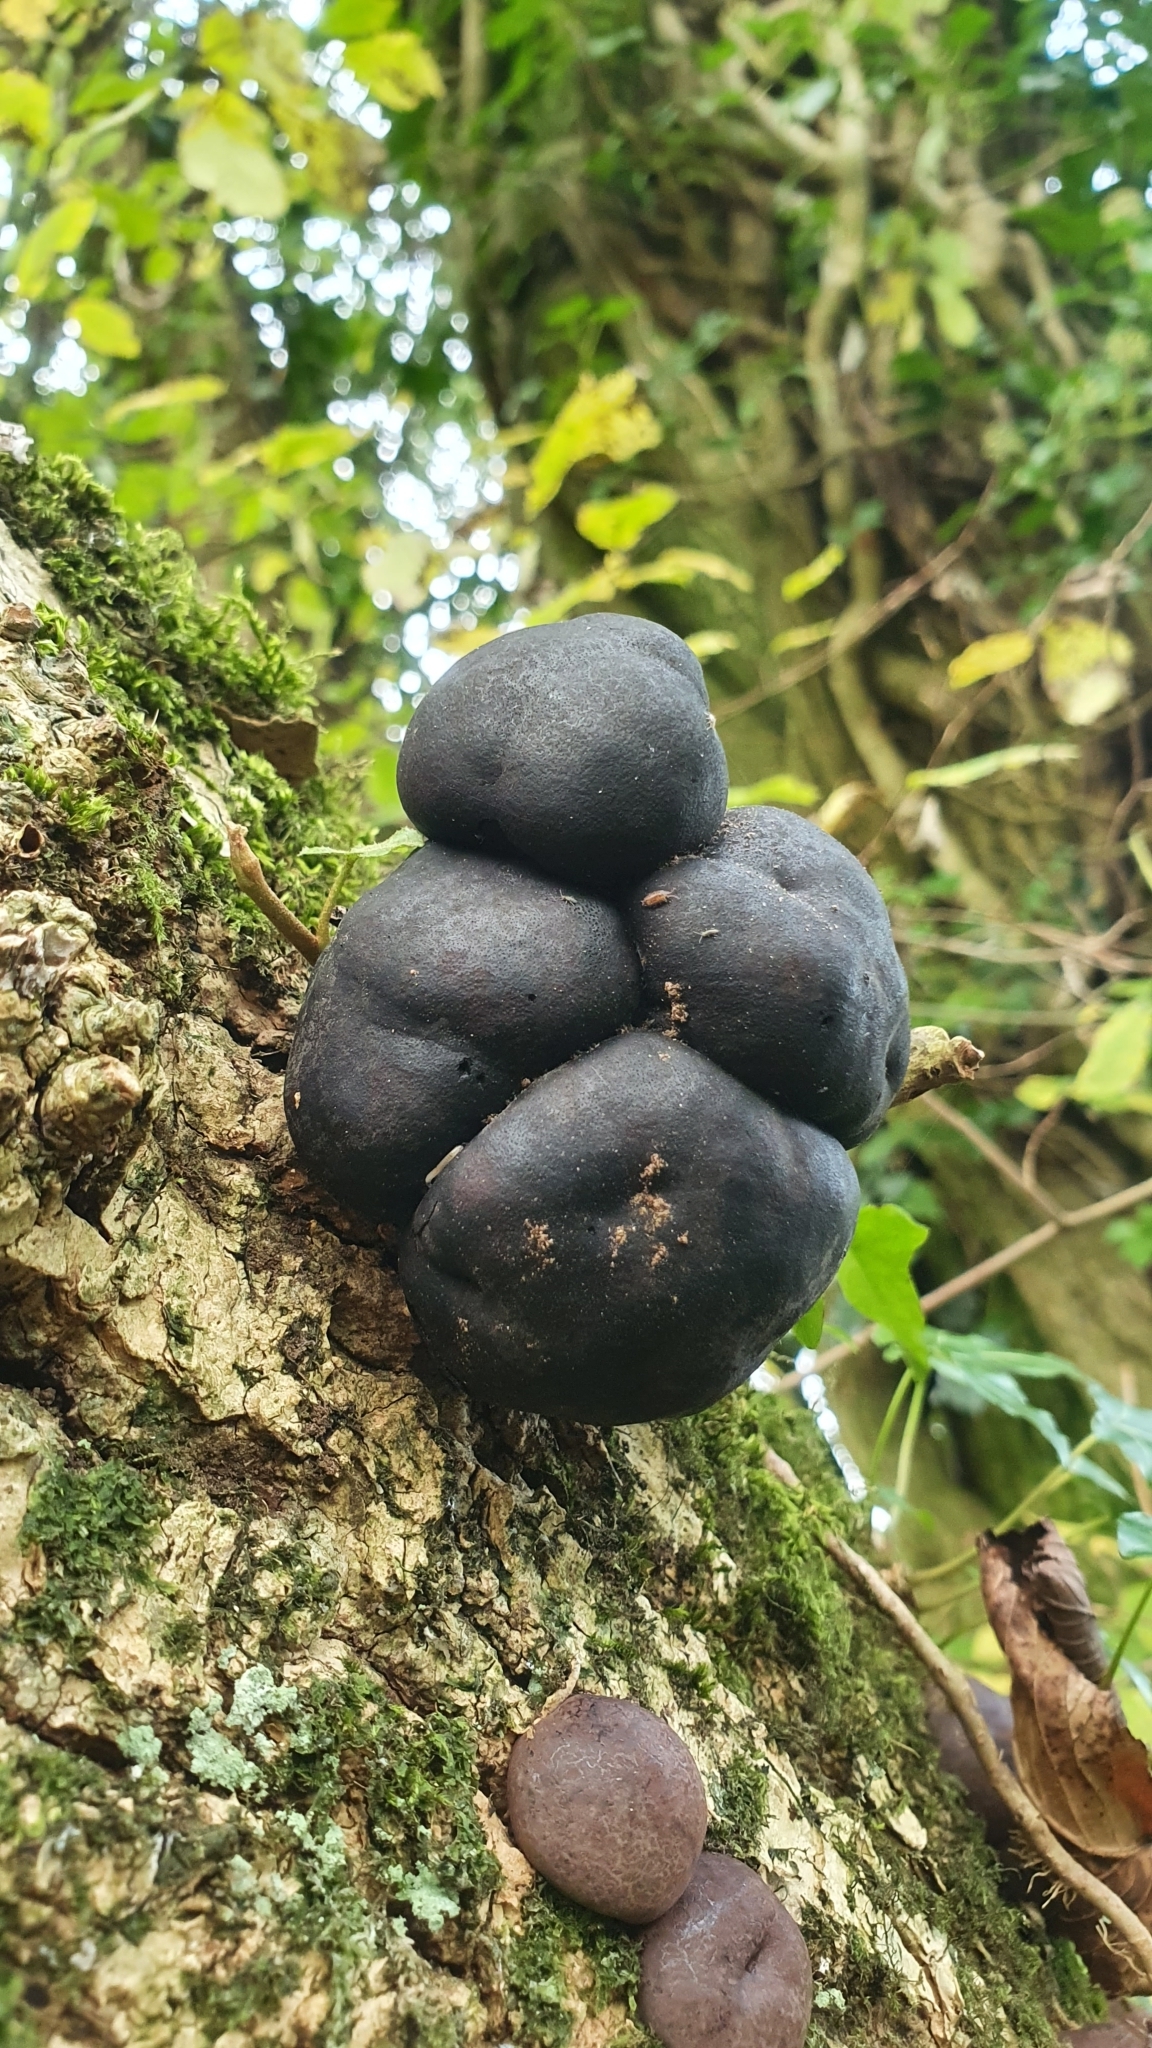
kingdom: Fungi
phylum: Ascomycota
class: Sordariomycetes
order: Xylariales
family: Hypoxylaceae
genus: Daldinia
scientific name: Daldinia concentrica
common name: Cramp balls
